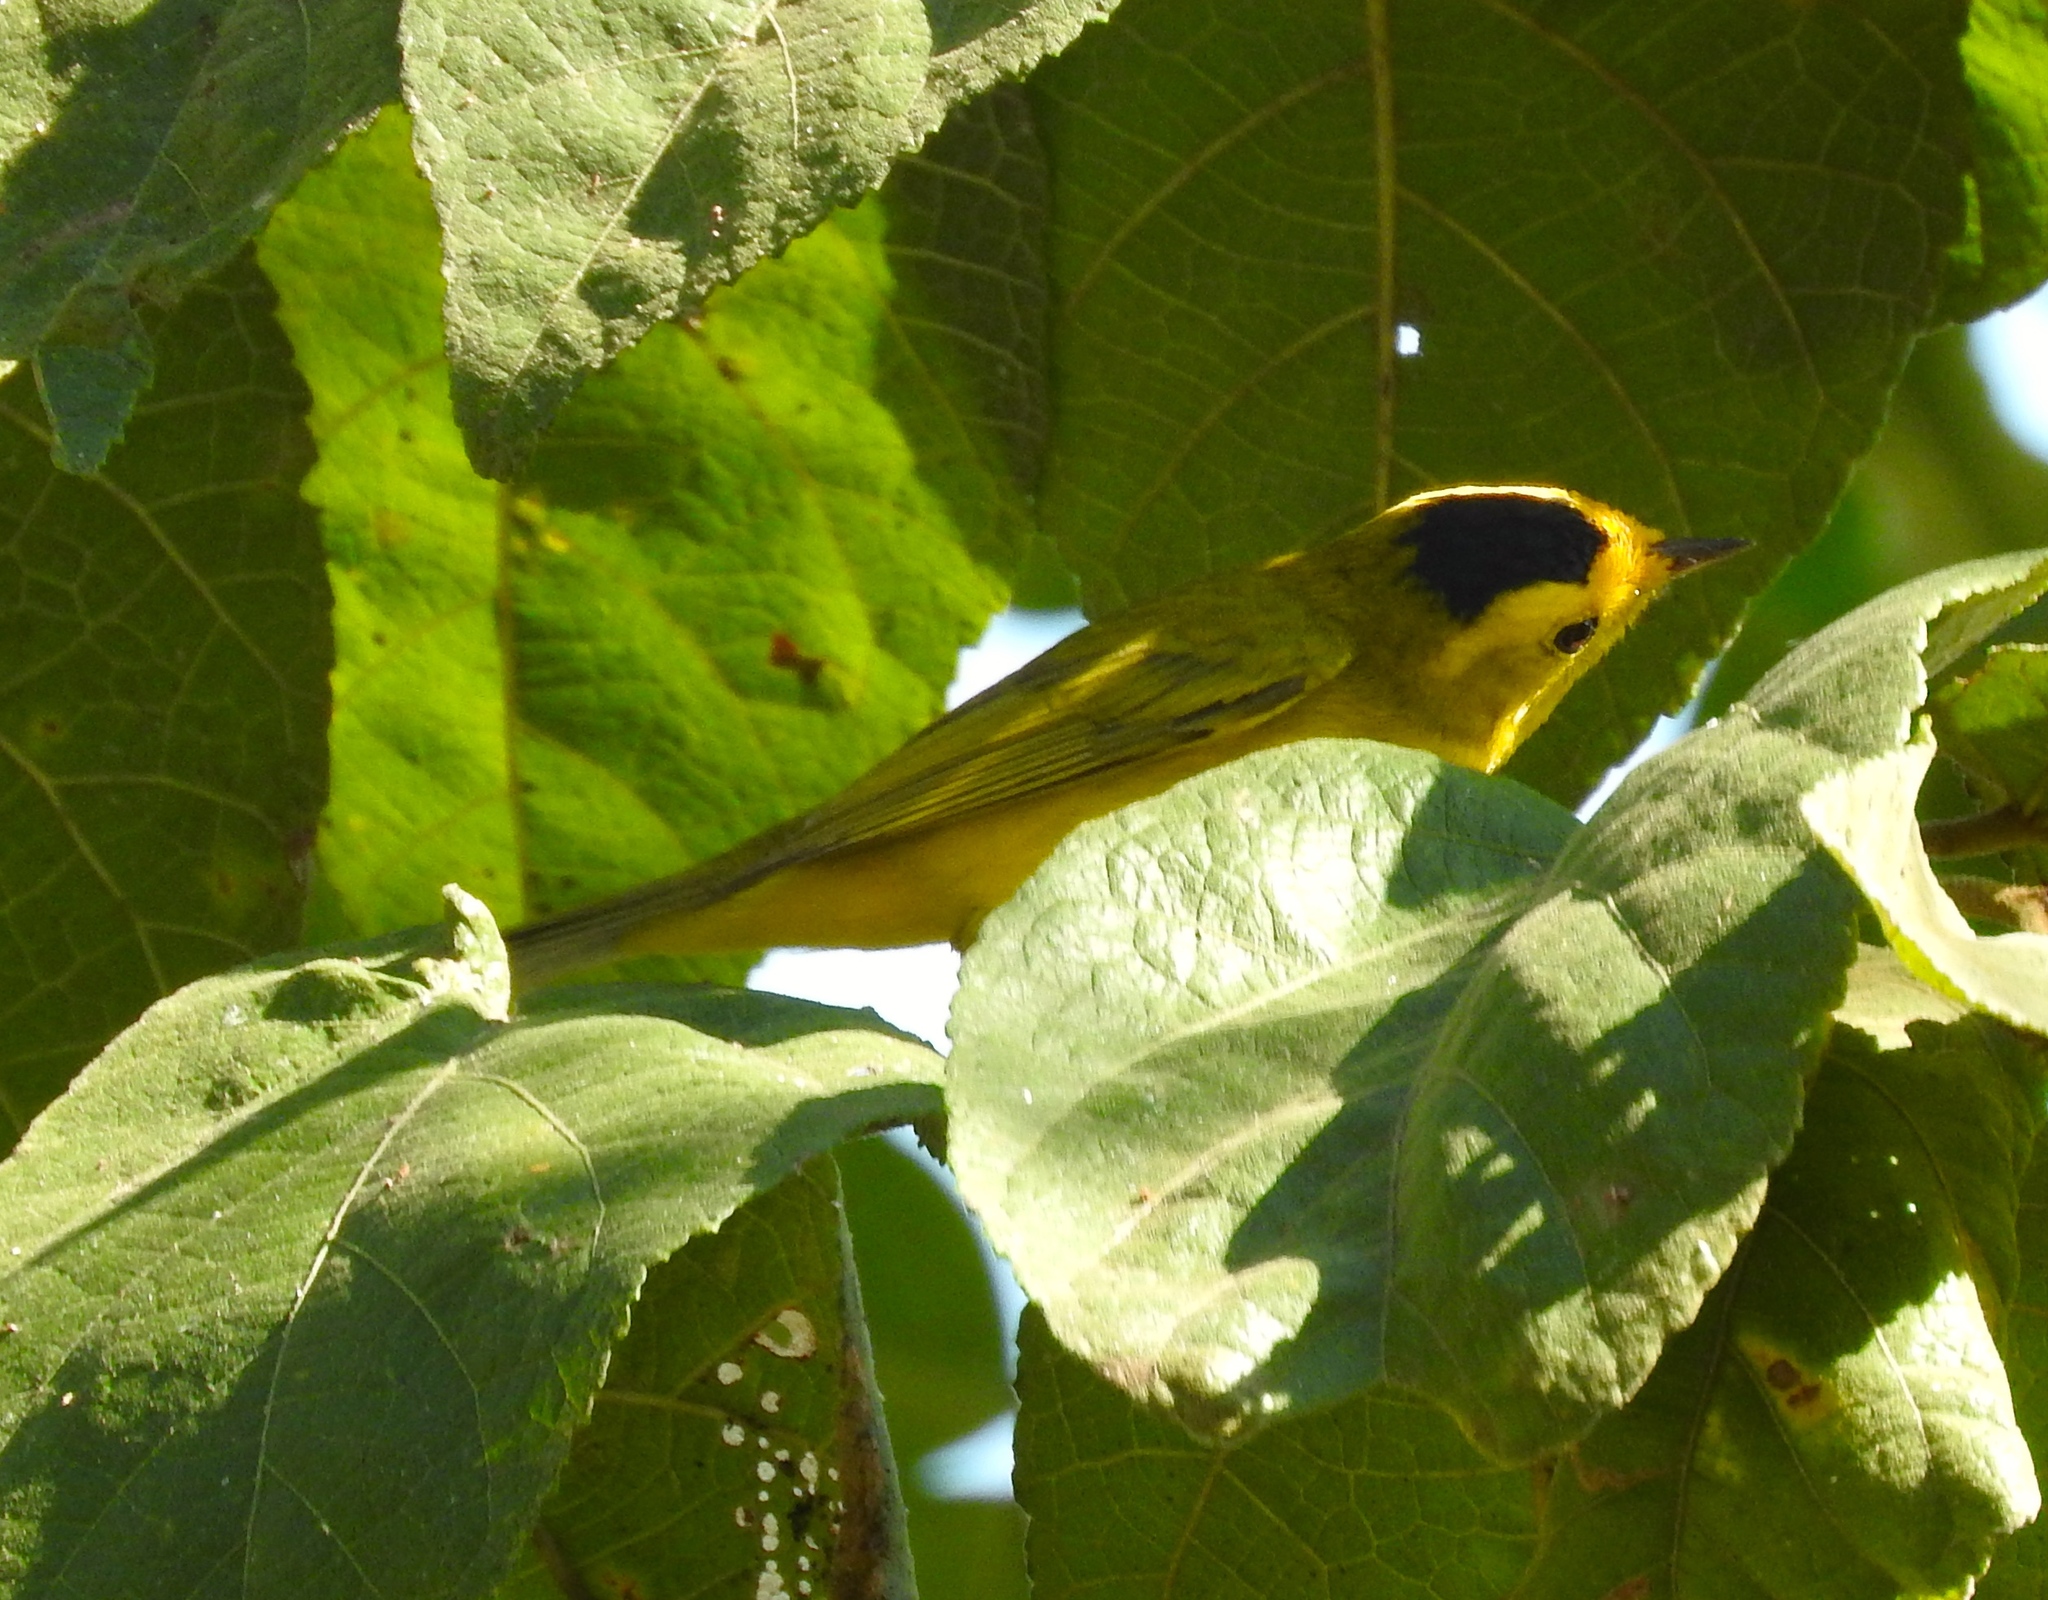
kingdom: Animalia
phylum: Chordata
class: Aves
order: Passeriformes
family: Parulidae
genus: Cardellina
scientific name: Cardellina pusilla
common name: Wilson's warbler
